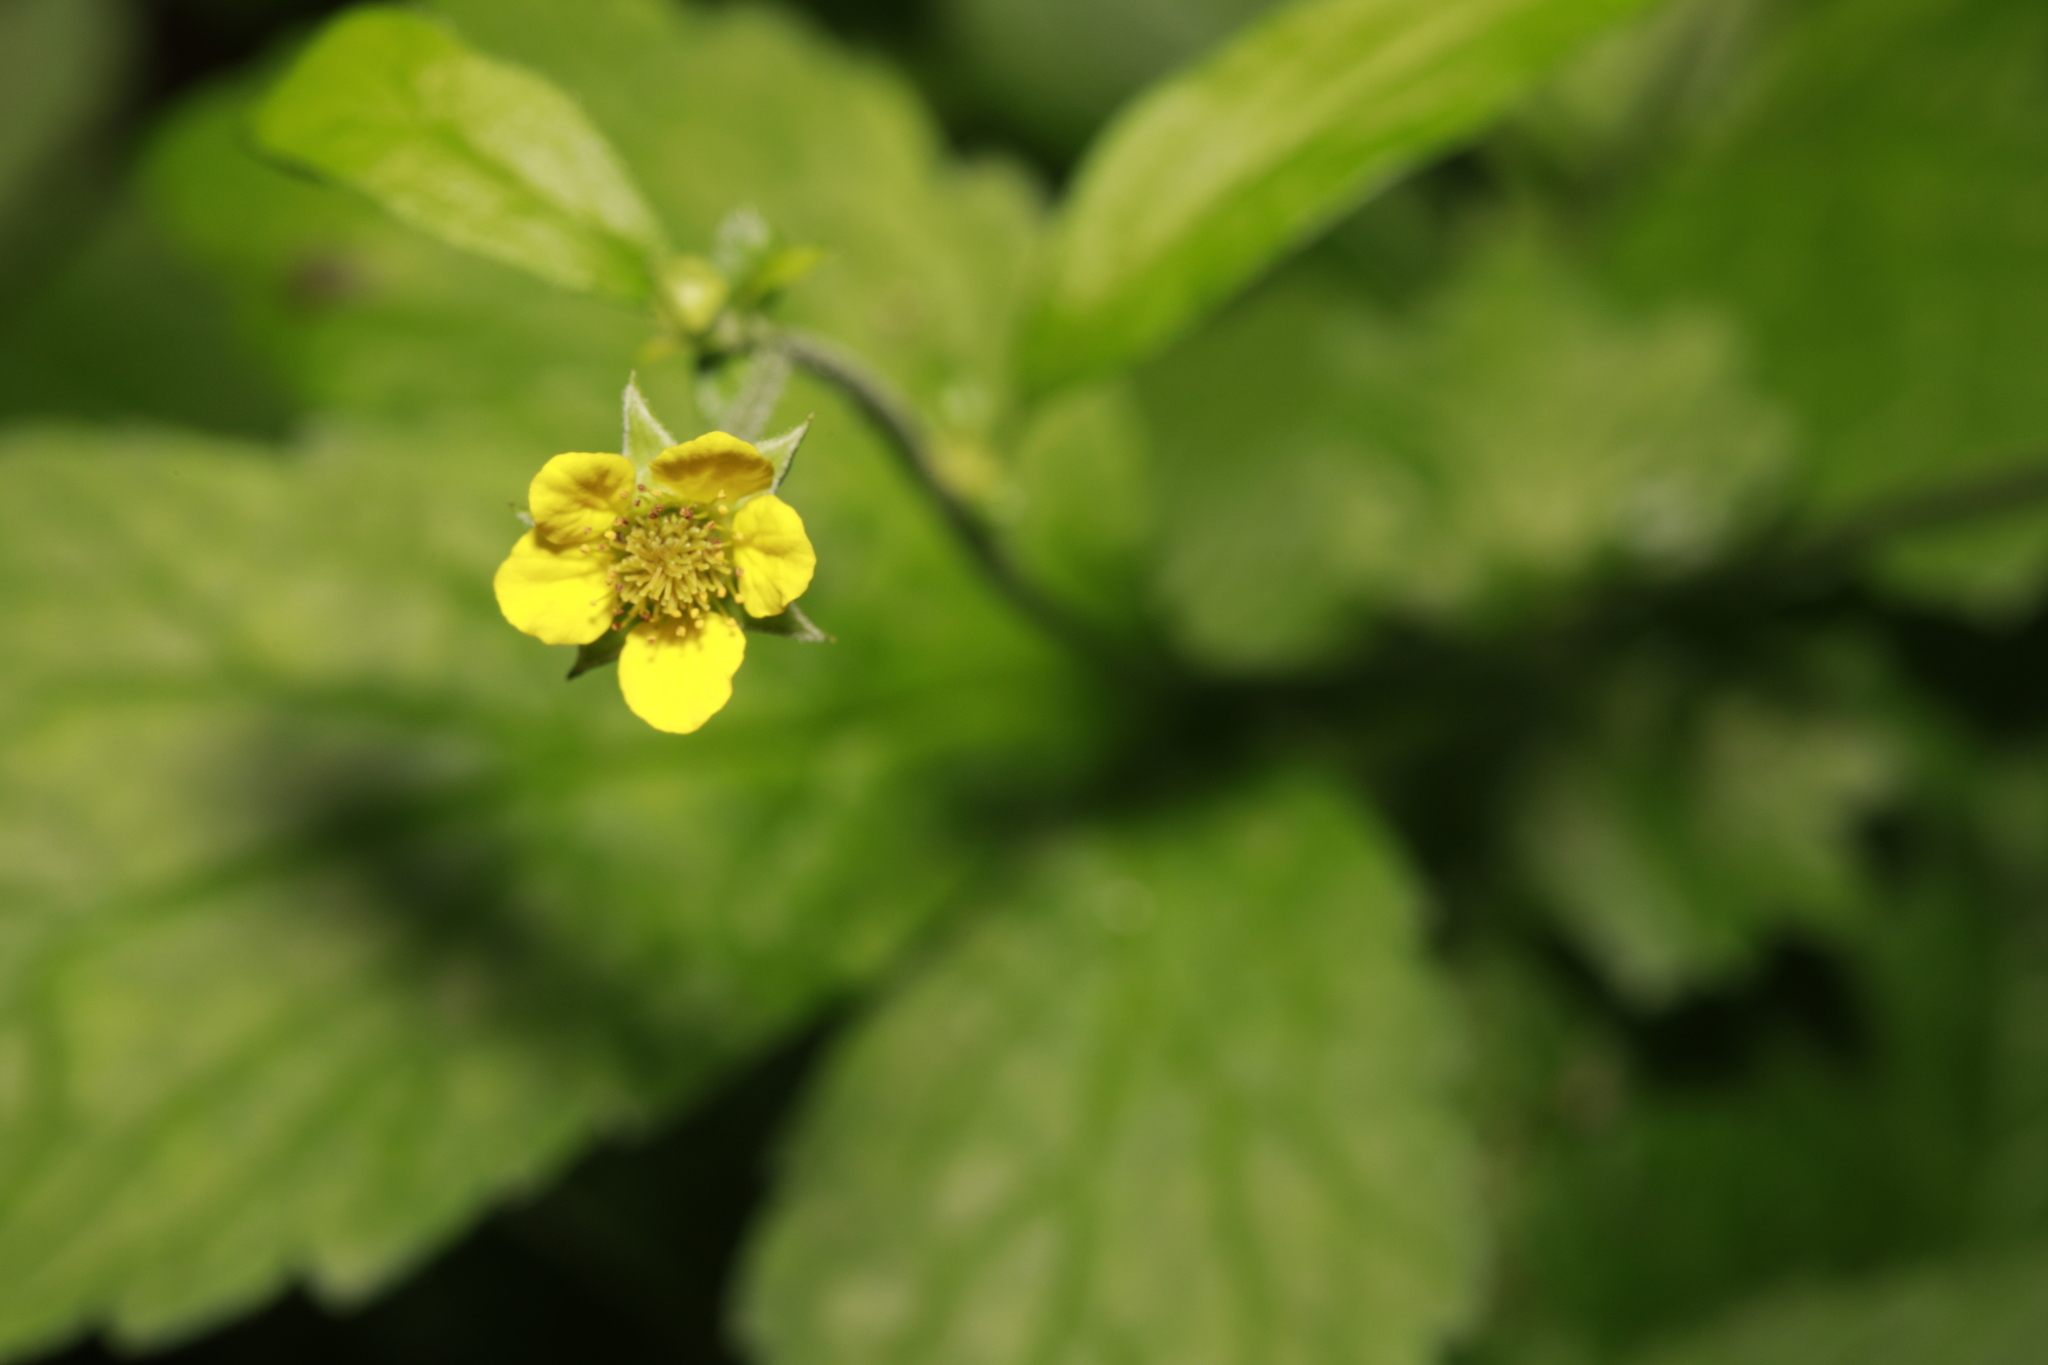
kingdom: Plantae
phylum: Tracheophyta
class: Magnoliopsida
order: Rosales
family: Rosaceae
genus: Geum
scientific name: Geum urbanum
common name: Wood avens
